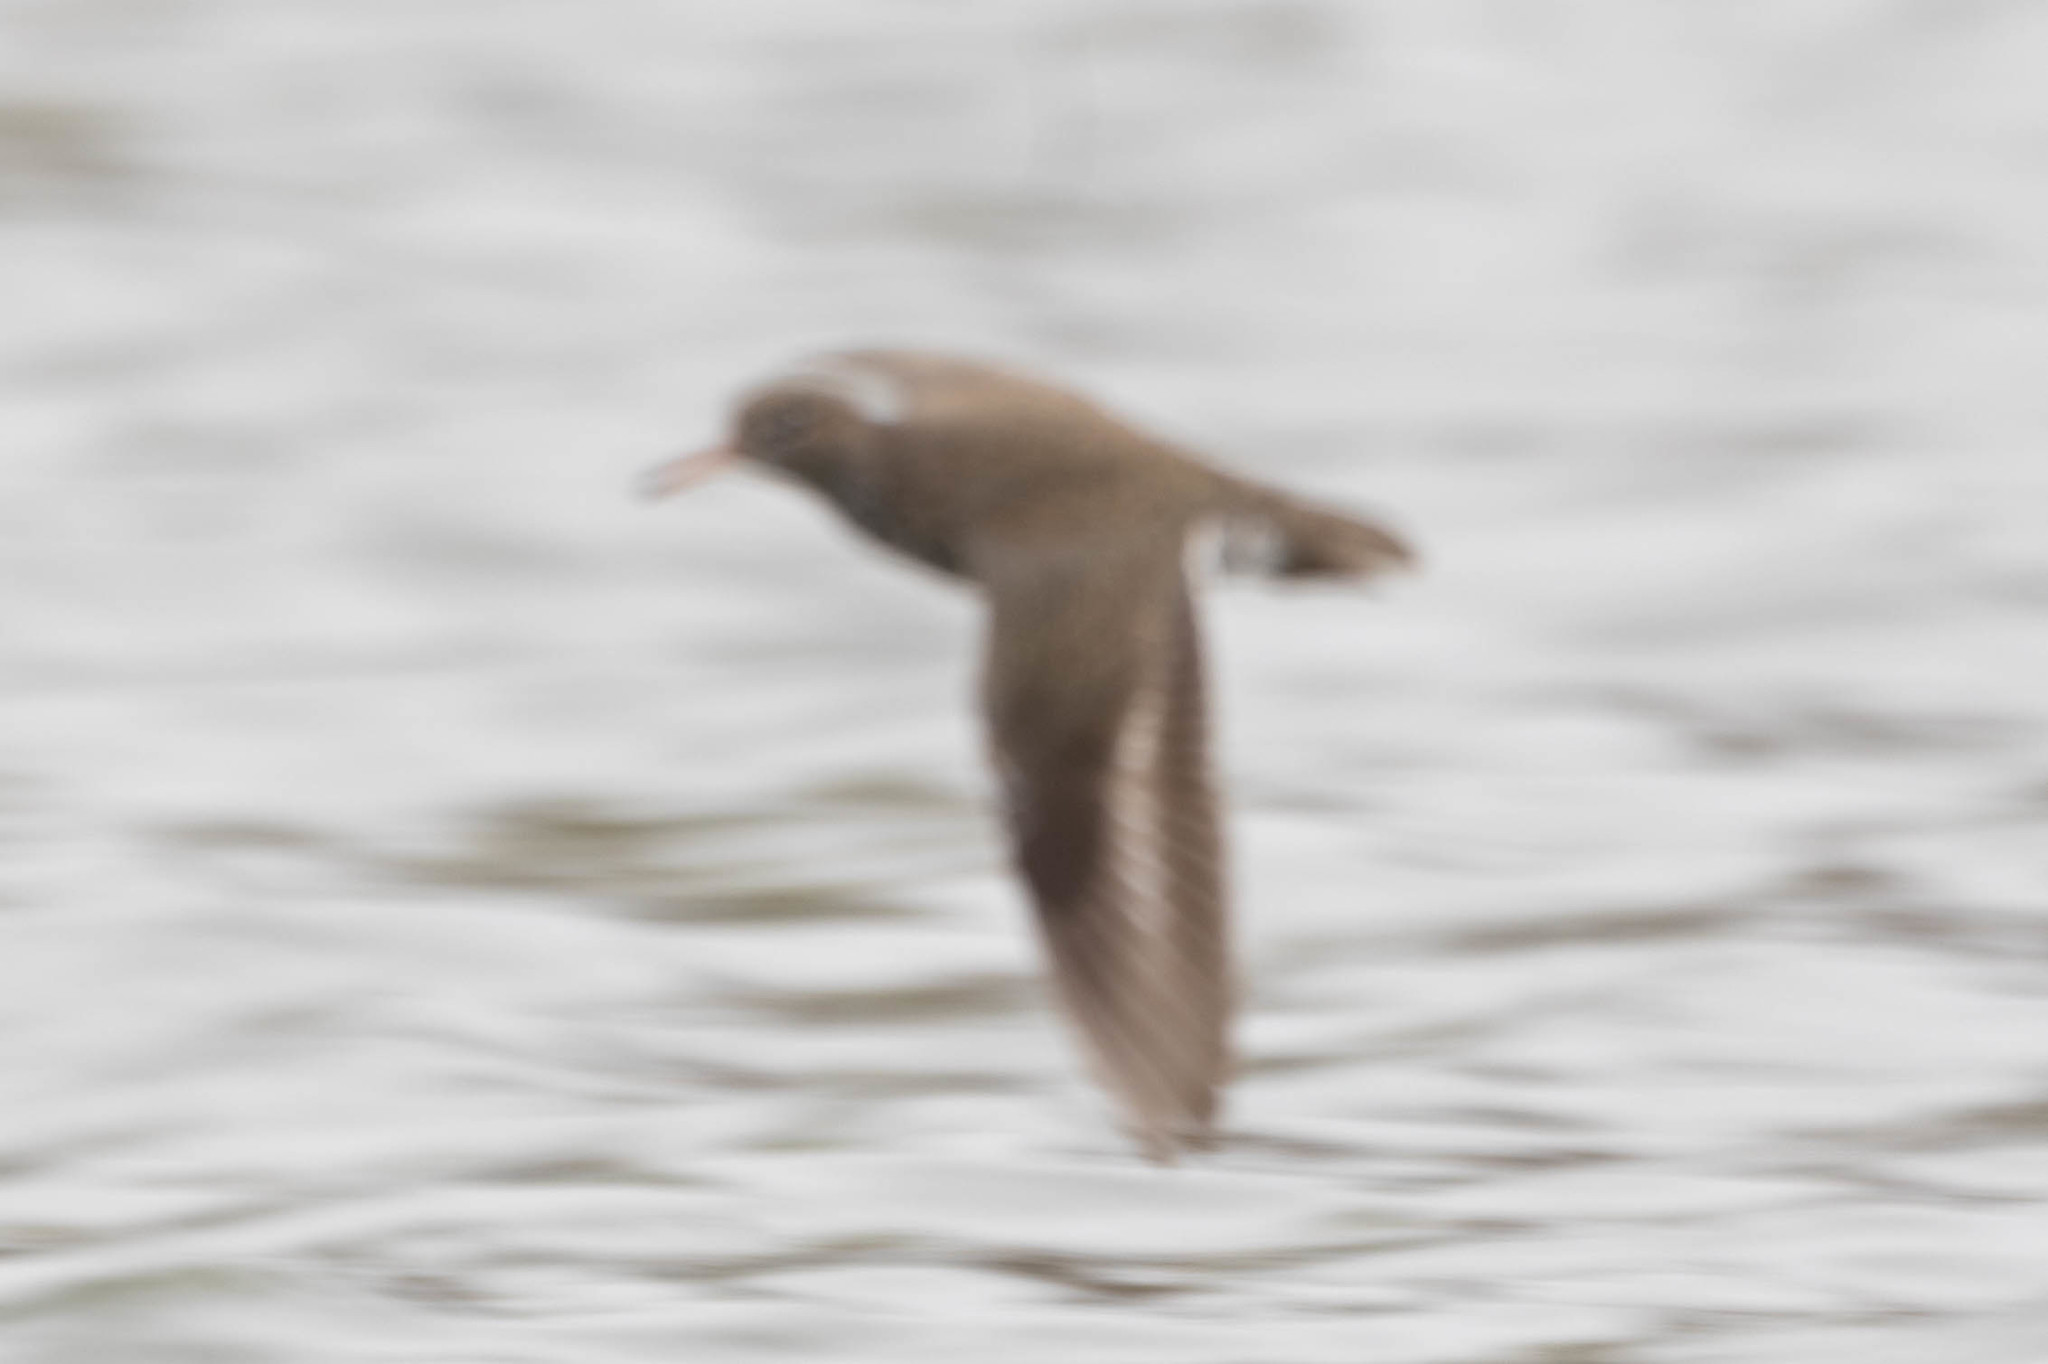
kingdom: Animalia
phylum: Chordata
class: Aves
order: Charadriiformes
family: Scolopacidae
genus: Actitis
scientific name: Actitis macularius
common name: Spotted sandpiper
